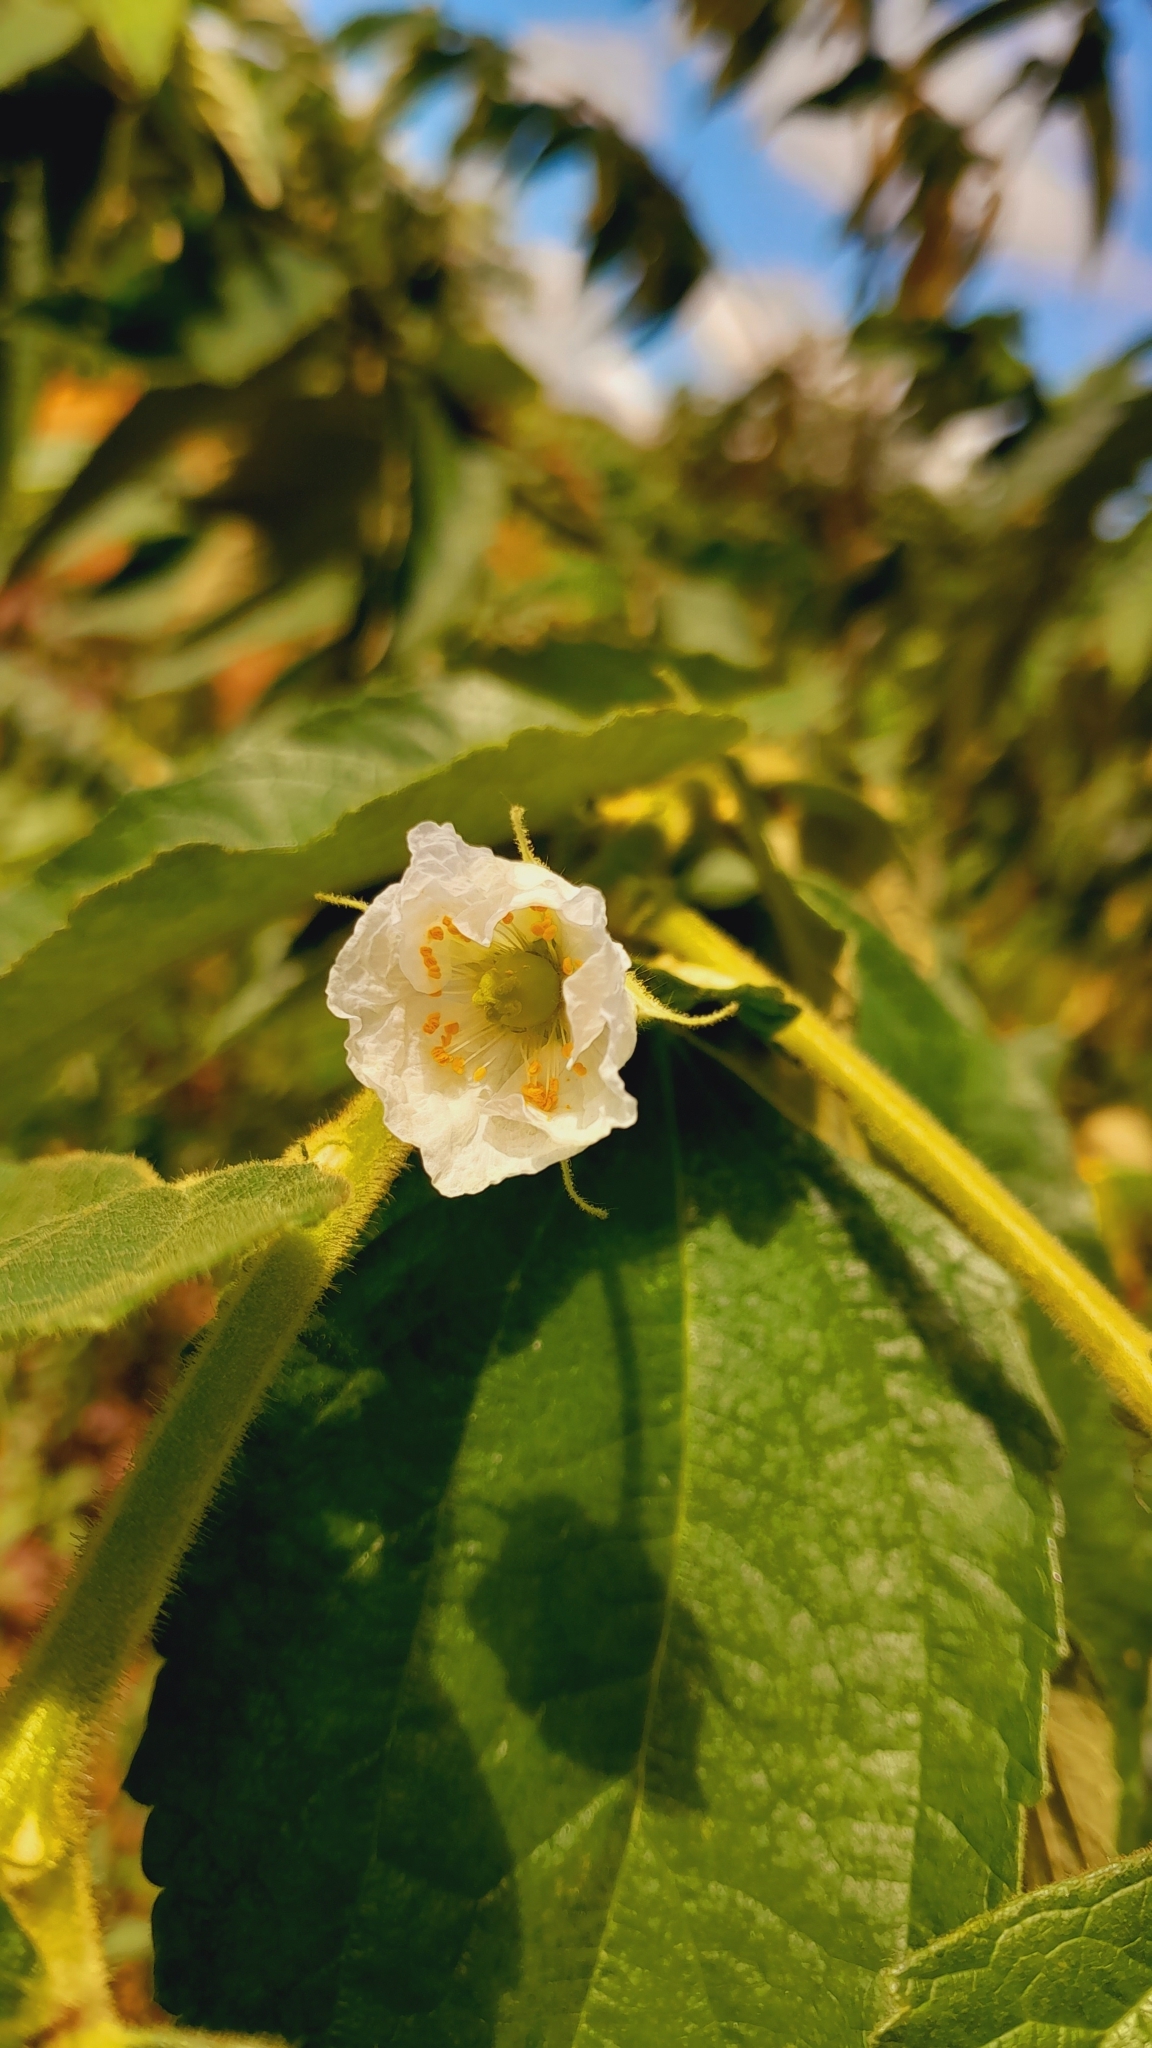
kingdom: Plantae
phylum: Tracheophyta
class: Magnoliopsida
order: Malvales
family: Muntingiaceae
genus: Muntingia
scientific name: Muntingia calabura
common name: Strawberrytree
